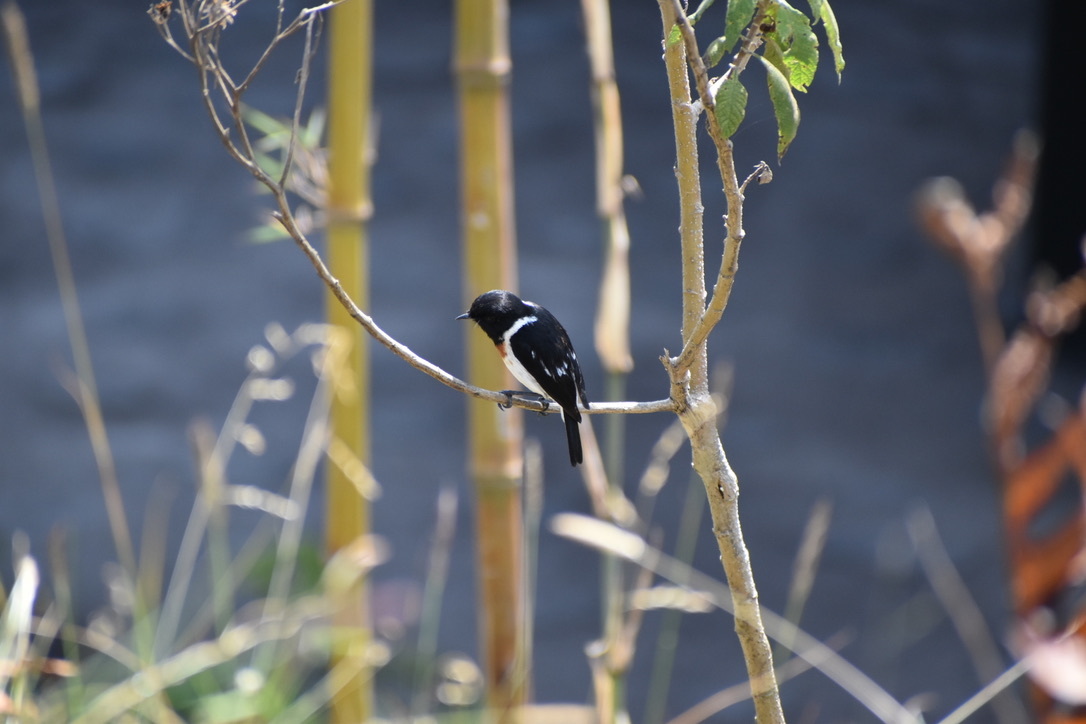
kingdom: Animalia
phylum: Chordata
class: Aves
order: Passeriformes
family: Muscicapidae
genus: Saxicola
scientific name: Saxicola torquatus
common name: African stonechat
